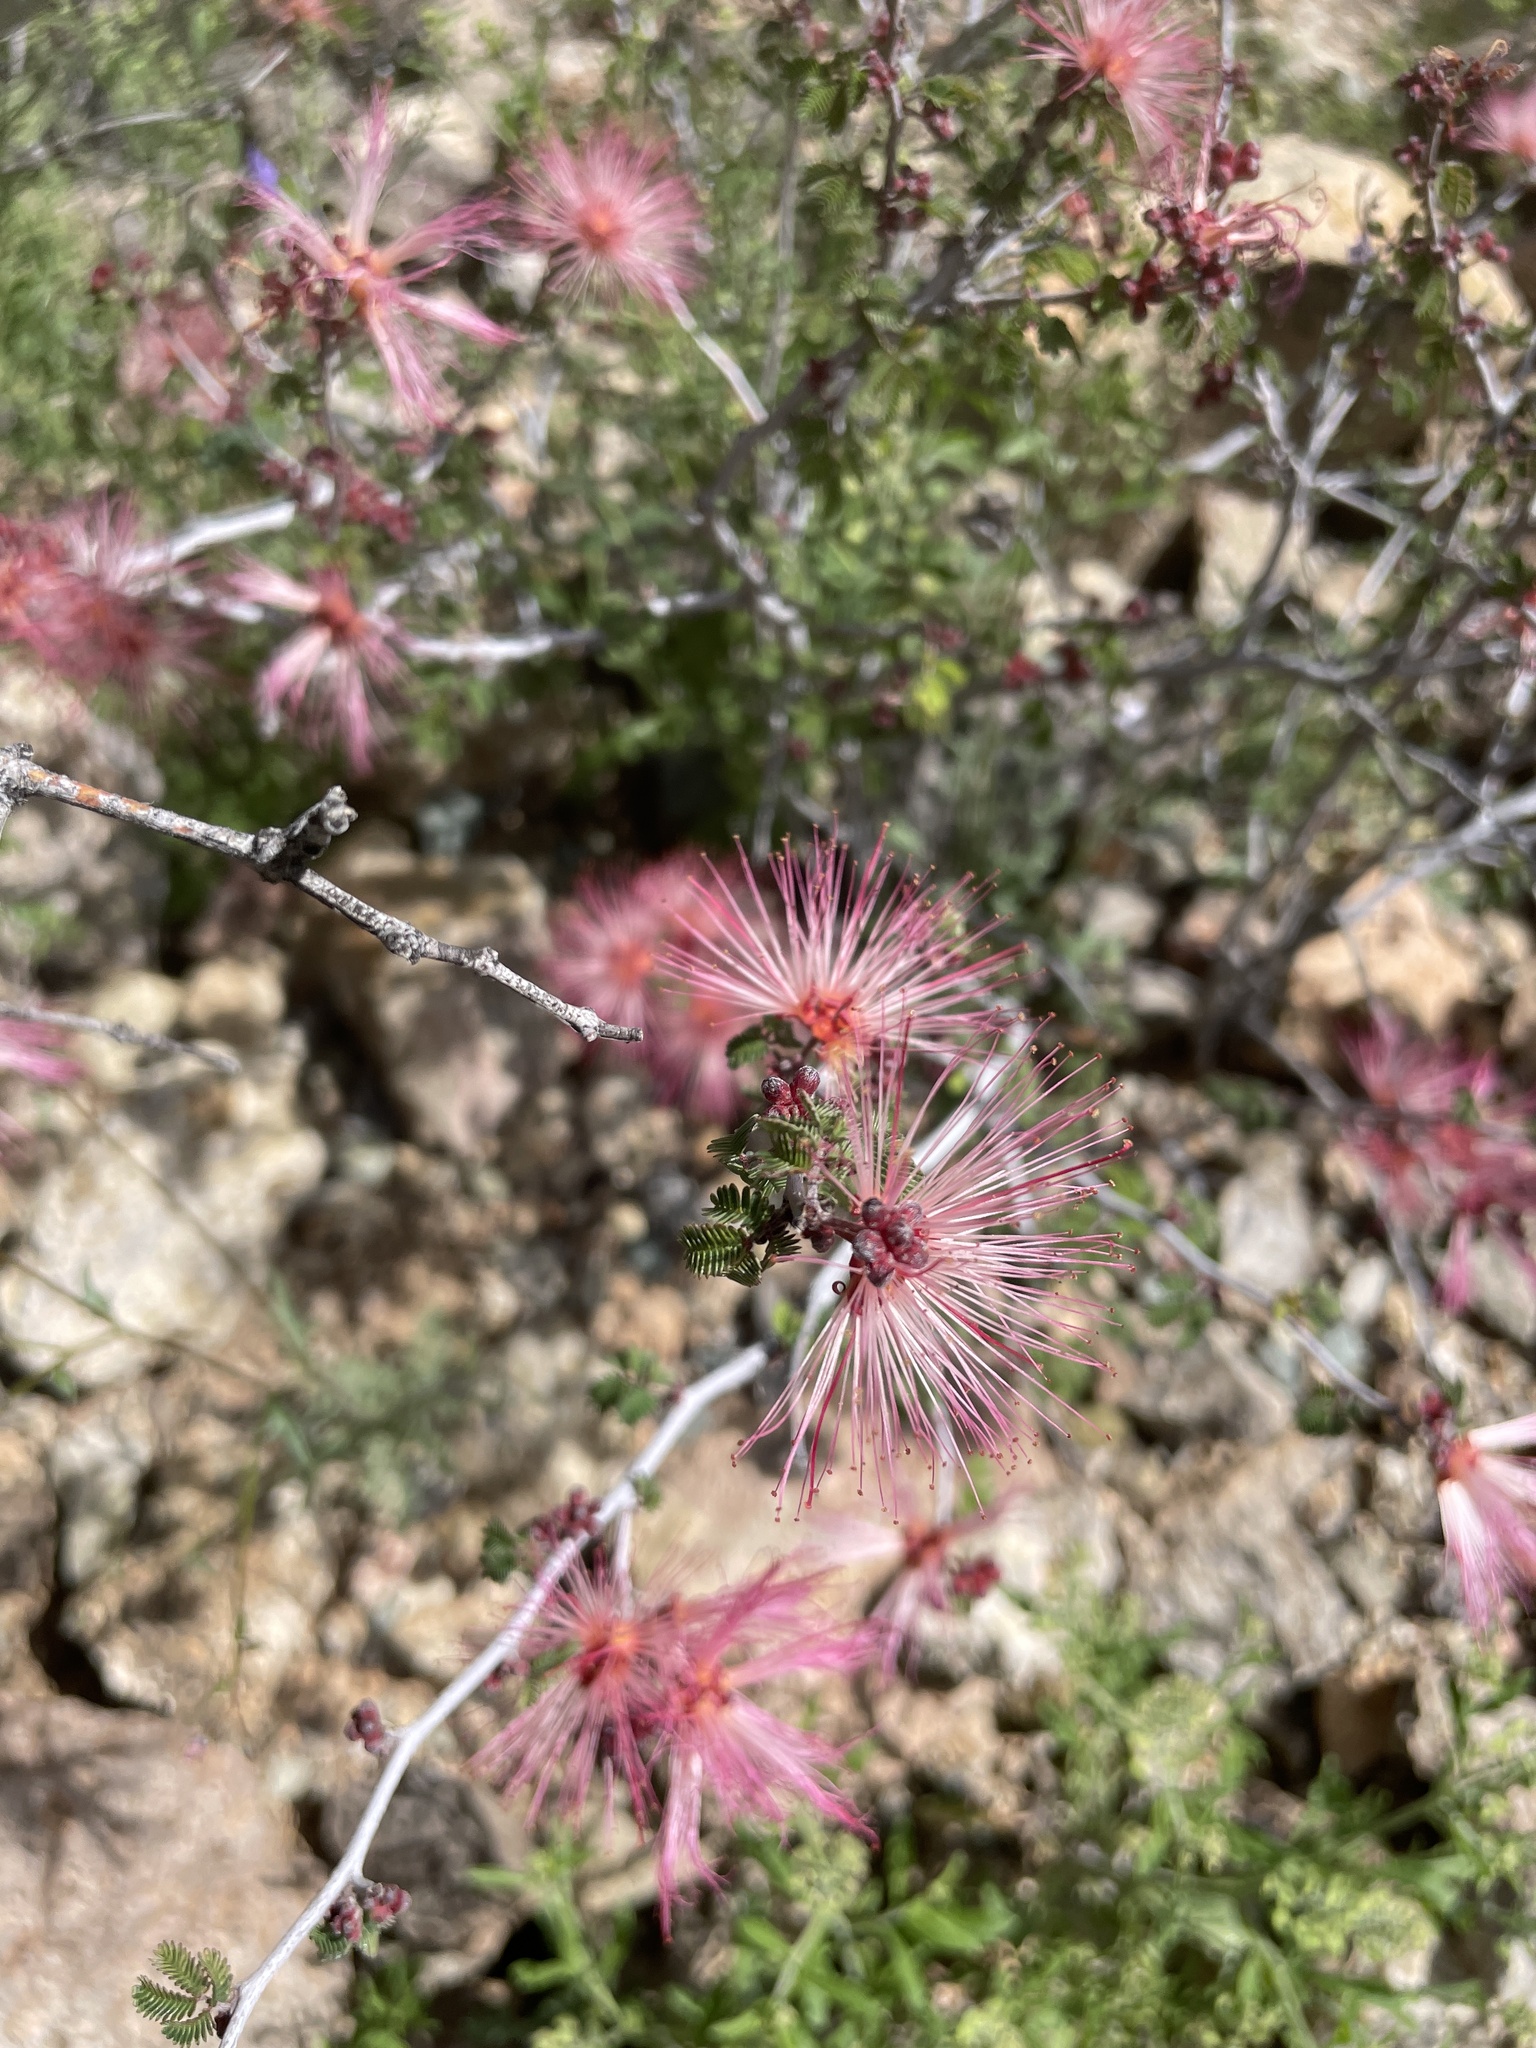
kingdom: Plantae
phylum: Tracheophyta
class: Magnoliopsida
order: Fabales
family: Fabaceae
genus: Calliandra
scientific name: Calliandra eriophylla
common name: Fairy-duster
